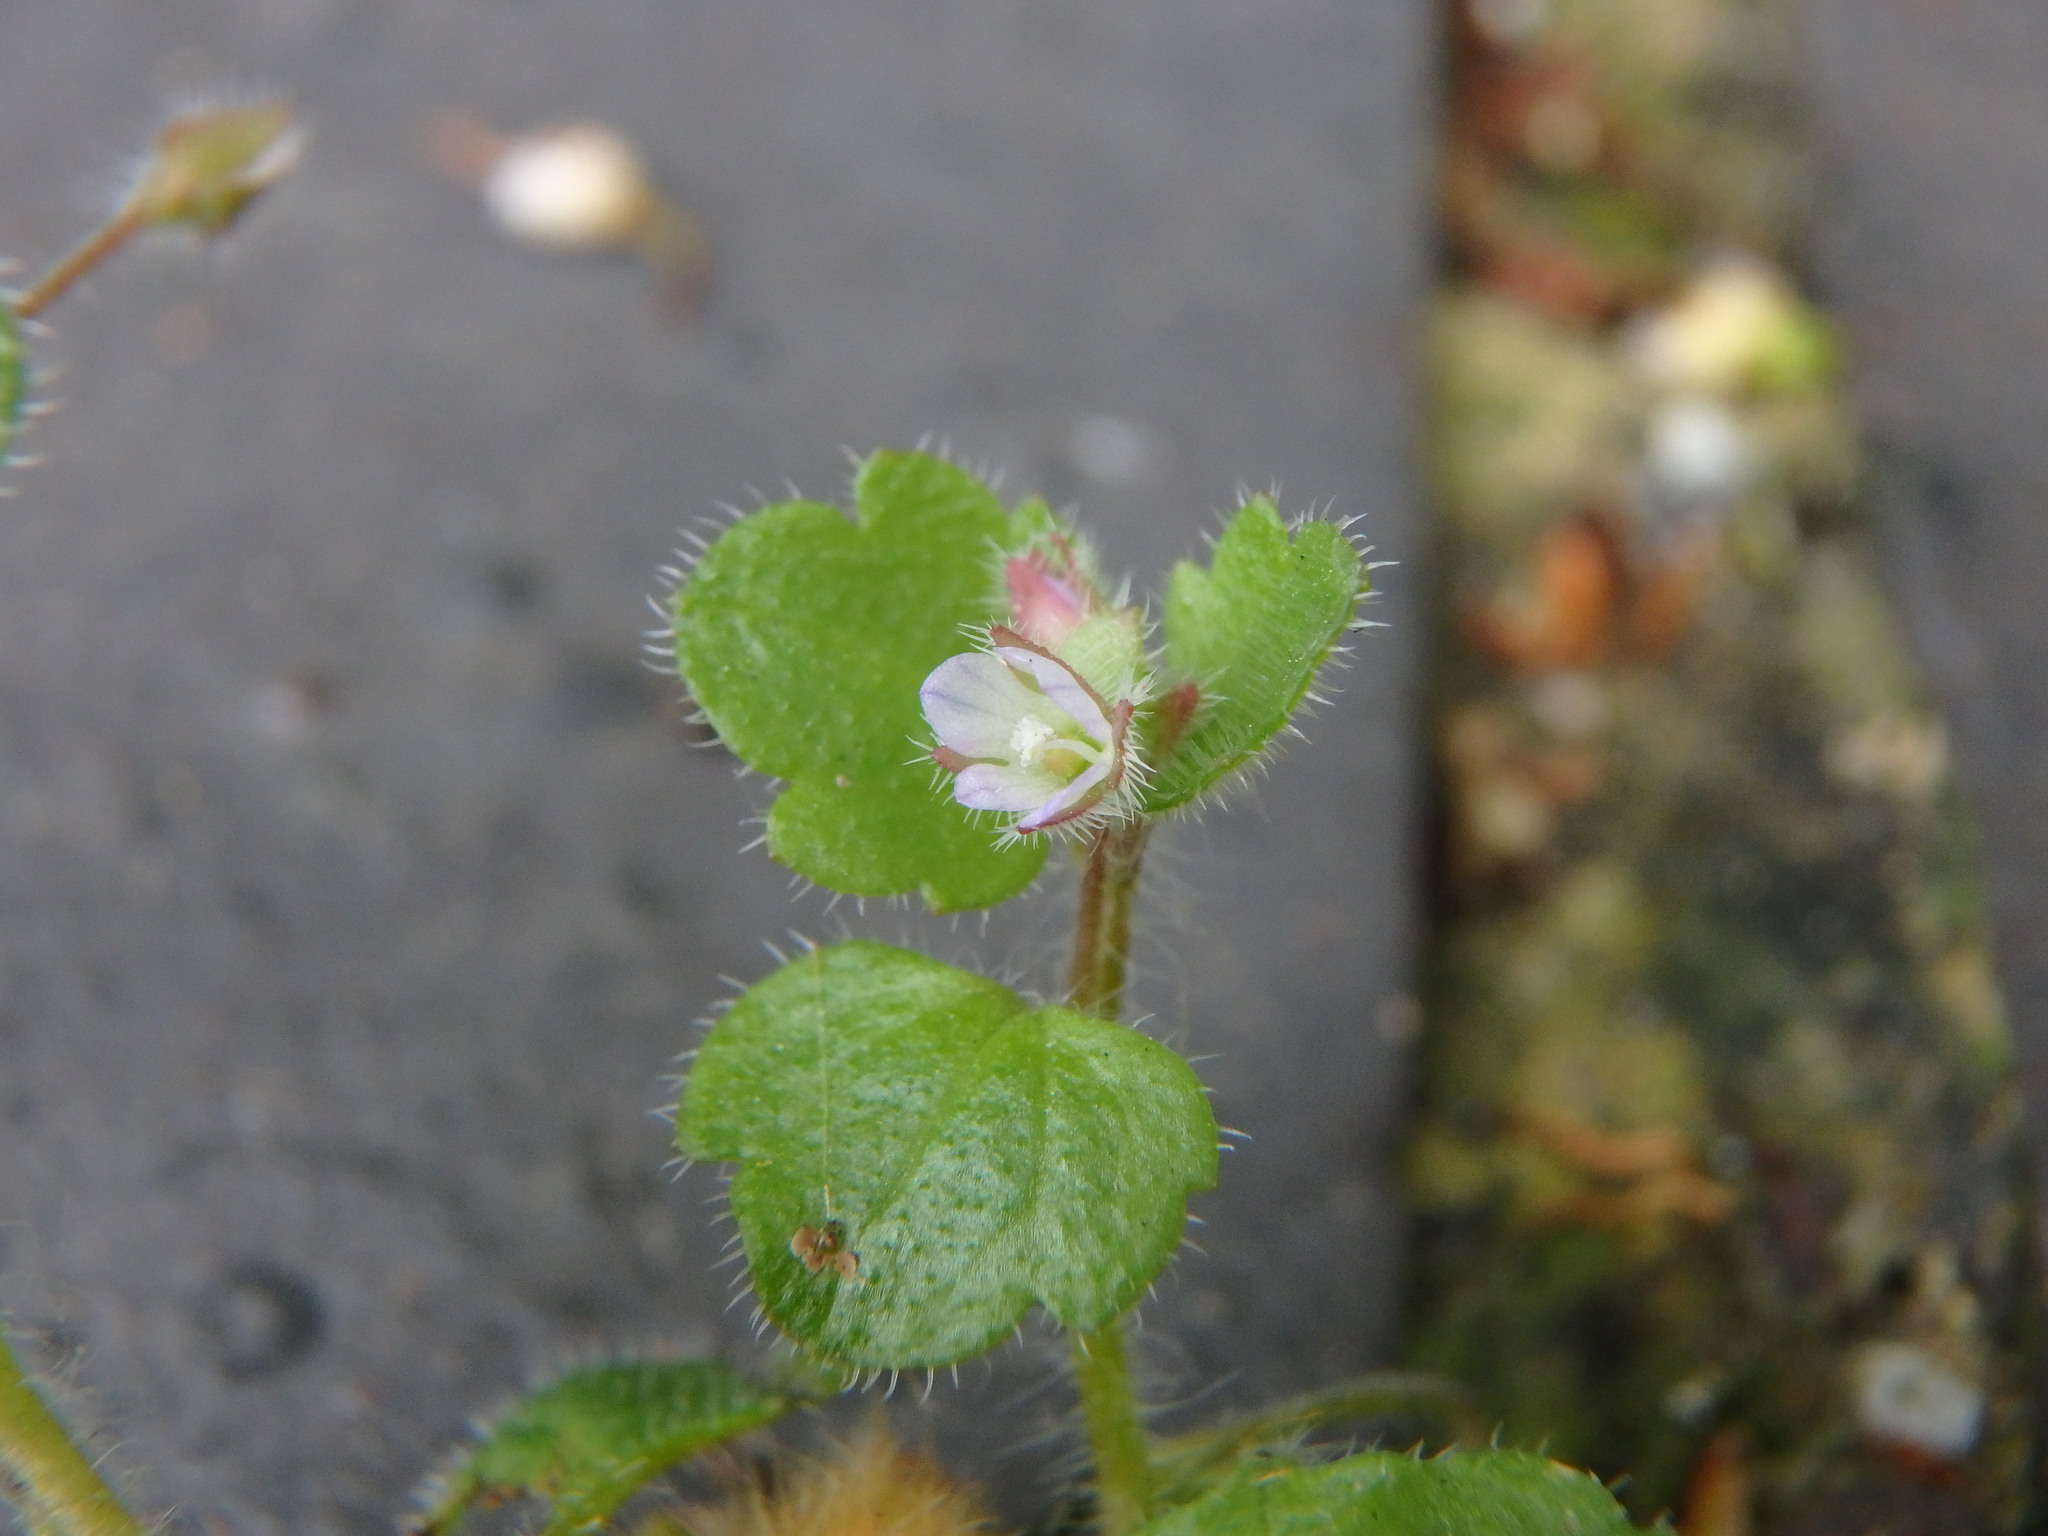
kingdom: Plantae
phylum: Tracheophyta
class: Magnoliopsida
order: Lamiales
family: Plantaginaceae
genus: Veronica
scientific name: Veronica sublobata
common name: False ivy-leaved speedwell
